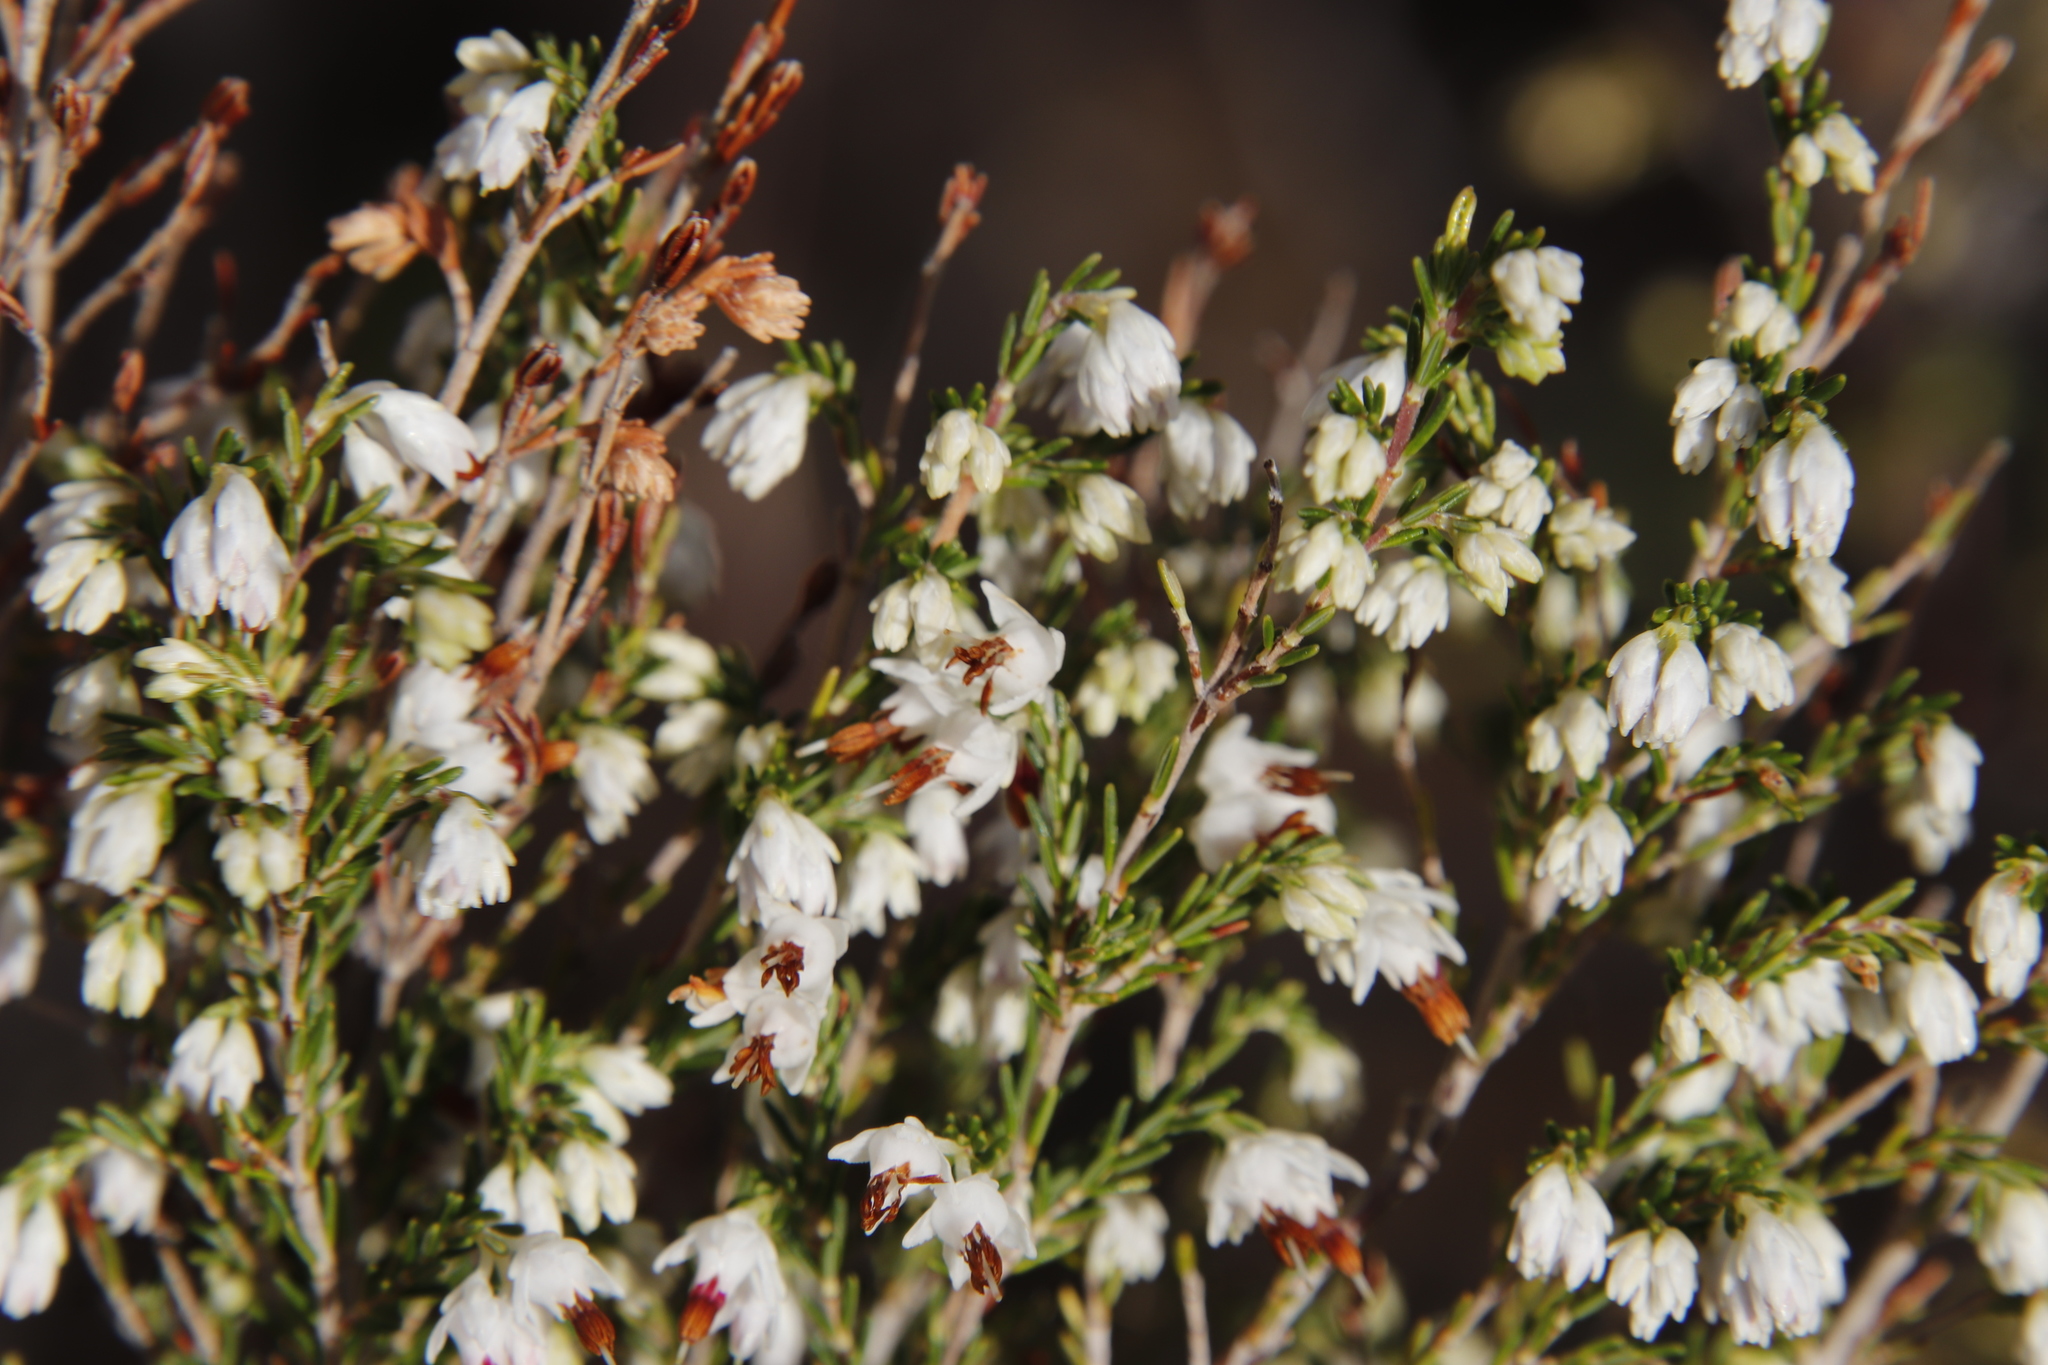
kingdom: Plantae
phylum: Tracheophyta
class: Magnoliopsida
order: Ericales
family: Ericaceae
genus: Erica
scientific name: Erica imbricata
